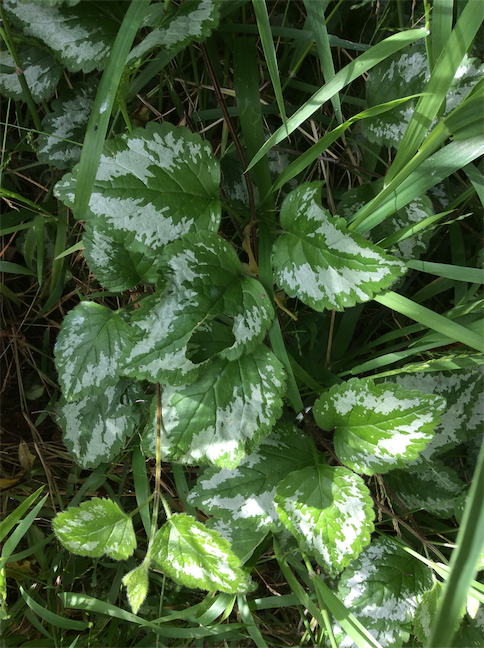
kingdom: Plantae
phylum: Tracheophyta
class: Magnoliopsida
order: Lamiales
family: Lamiaceae
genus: Lamium
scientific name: Lamium galeobdolon
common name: Yellow archangel
